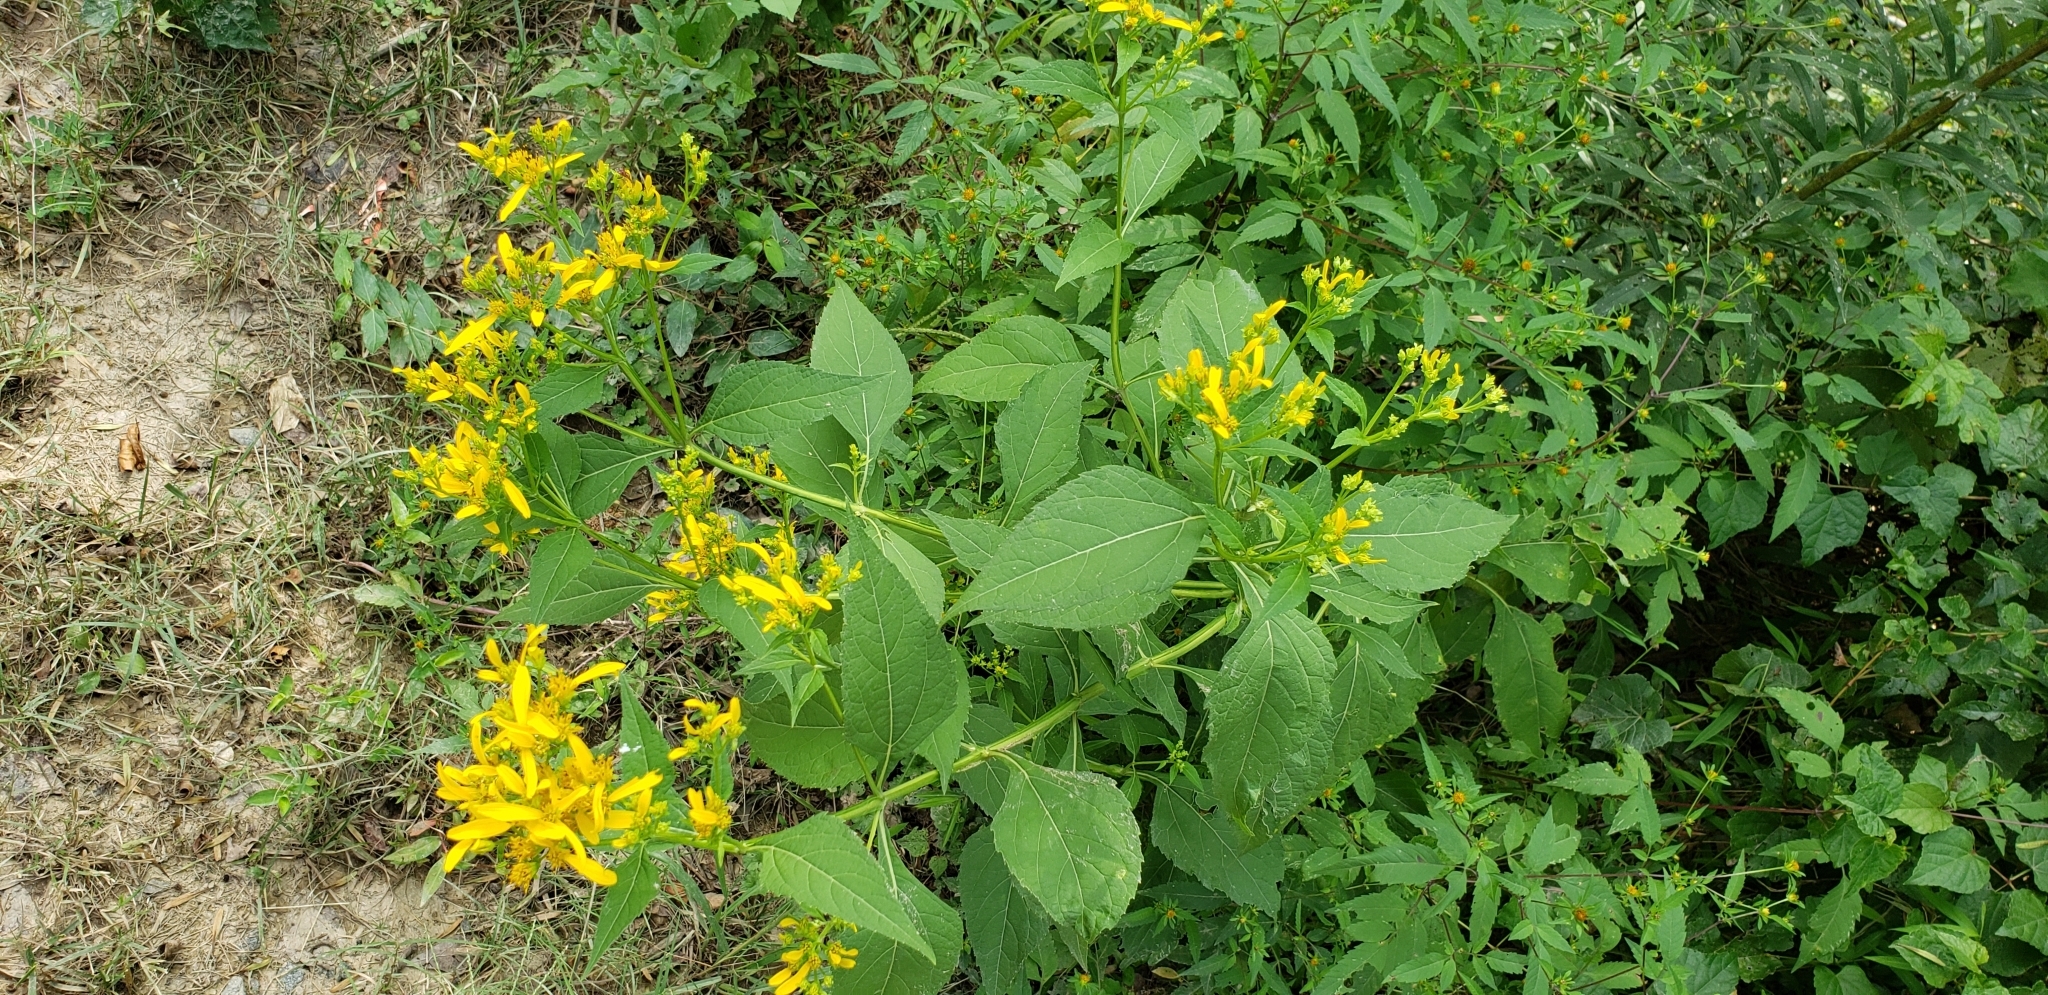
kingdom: Plantae
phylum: Tracheophyta
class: Magnoliopsida
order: Asterales
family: Asteraceae
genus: Verbesina
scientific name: Verbesina occidentalis
